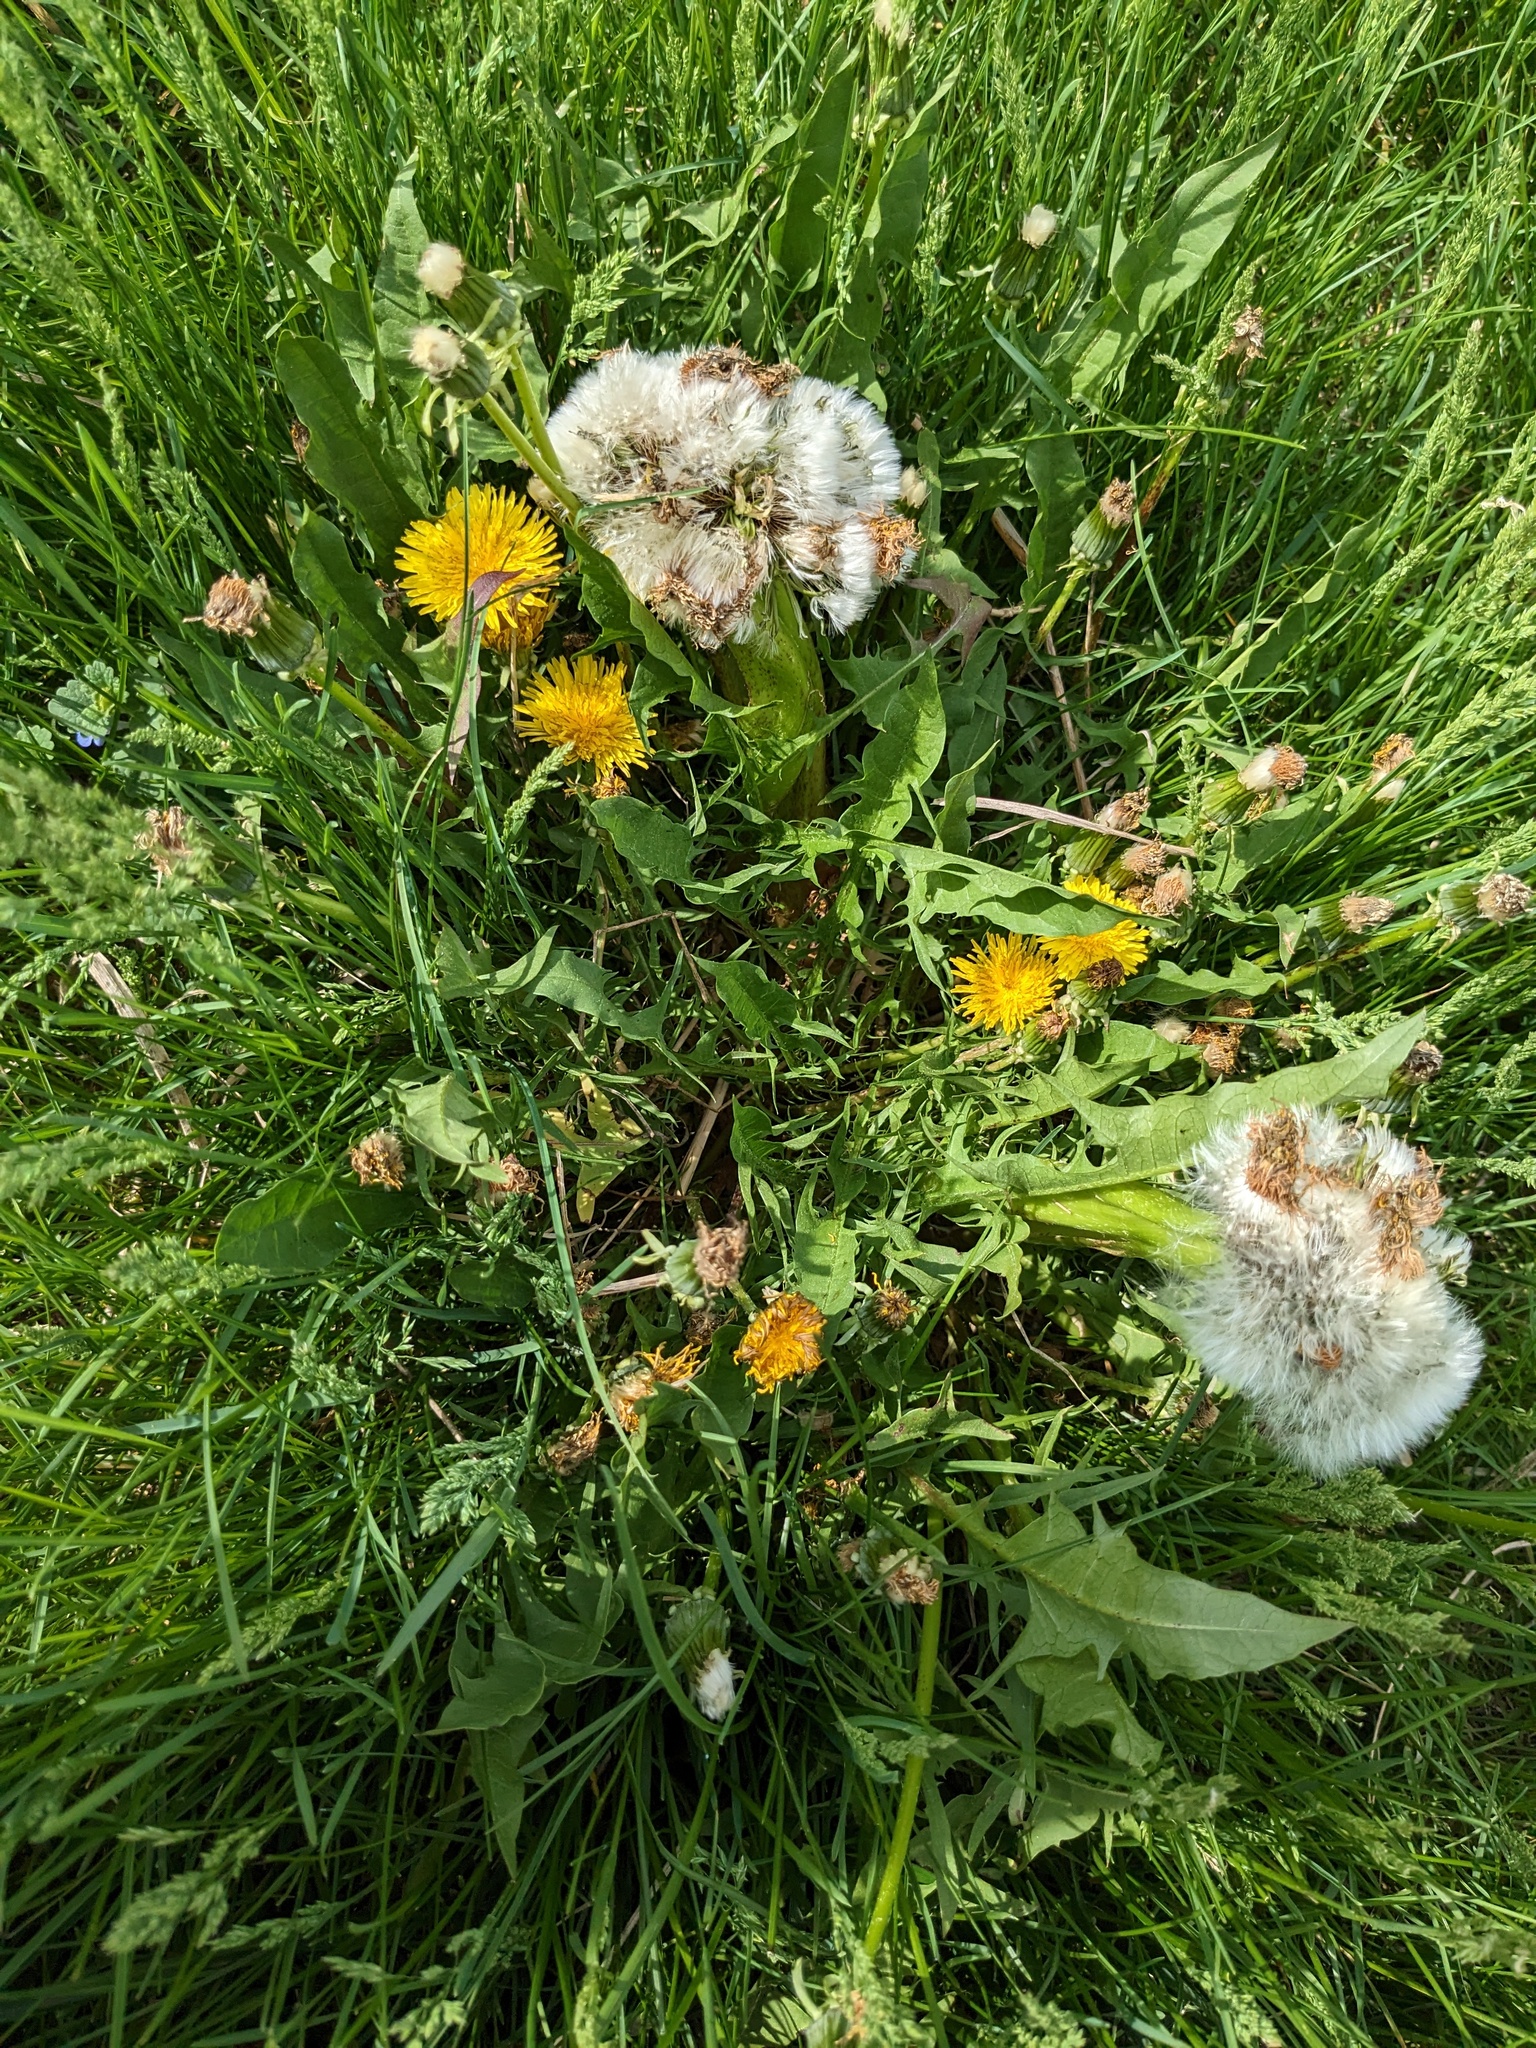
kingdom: Plantae
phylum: Tracheophyta
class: Magnoliopsida
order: Asterales
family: Asteraceae
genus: Taraxacum
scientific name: Taraxacum officinale
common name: Common dandelion
